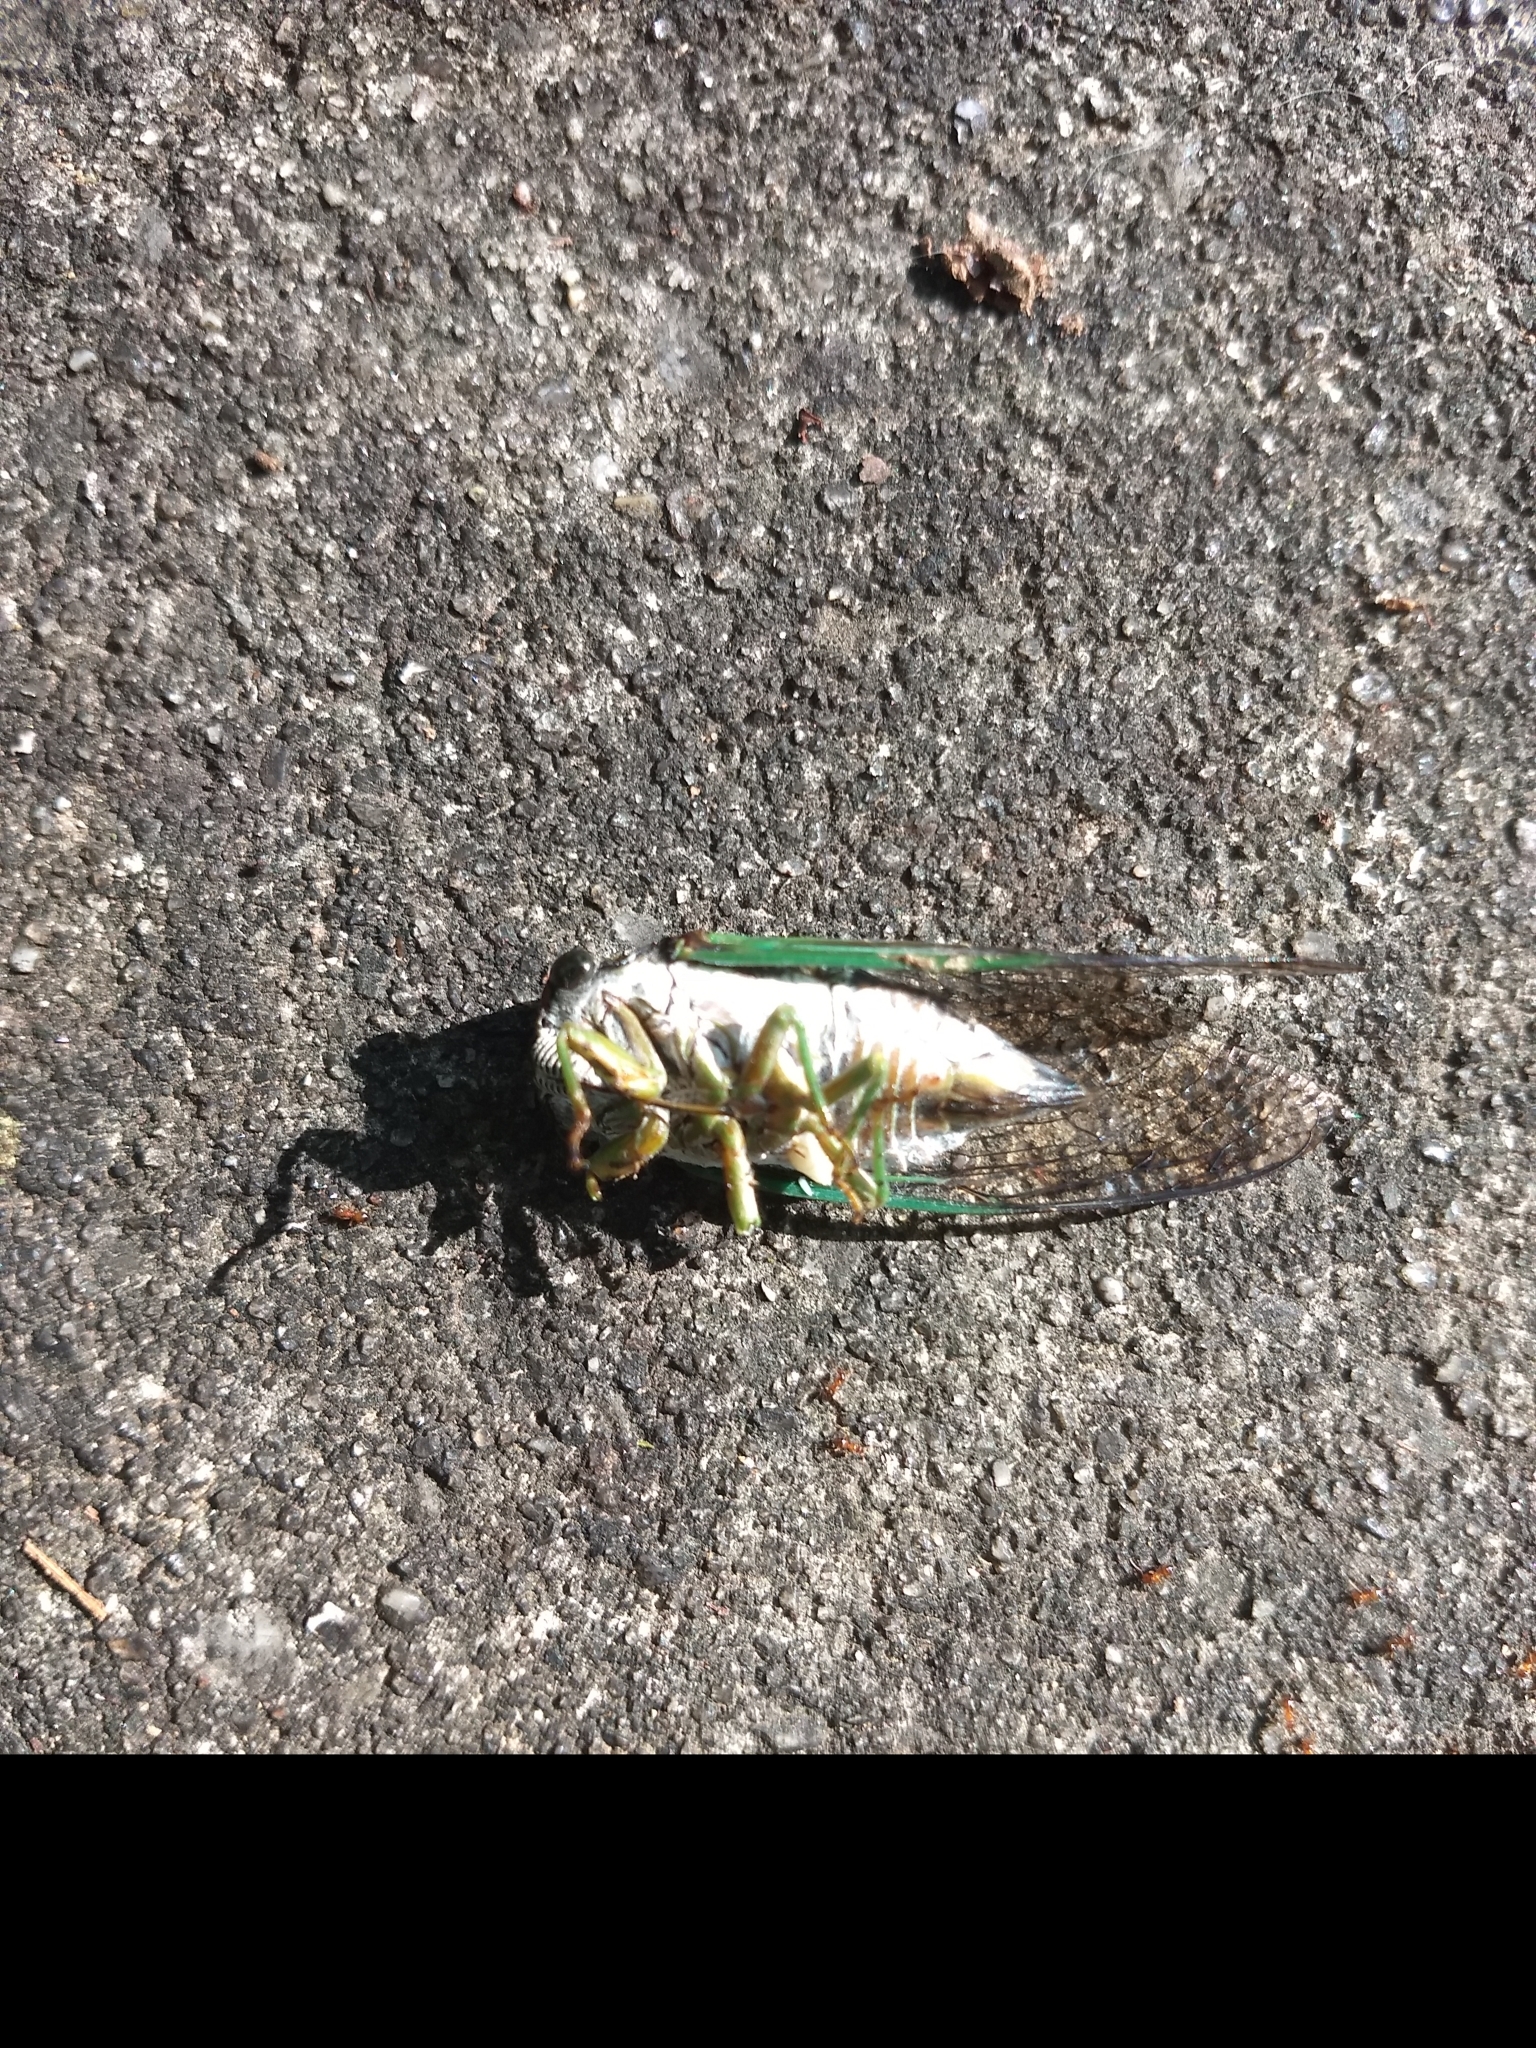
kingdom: Animalia
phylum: Arthropoda
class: Insecta
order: Hemiptera
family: Cicadidae
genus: Neotibicen
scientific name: Neotibicen tibicen
